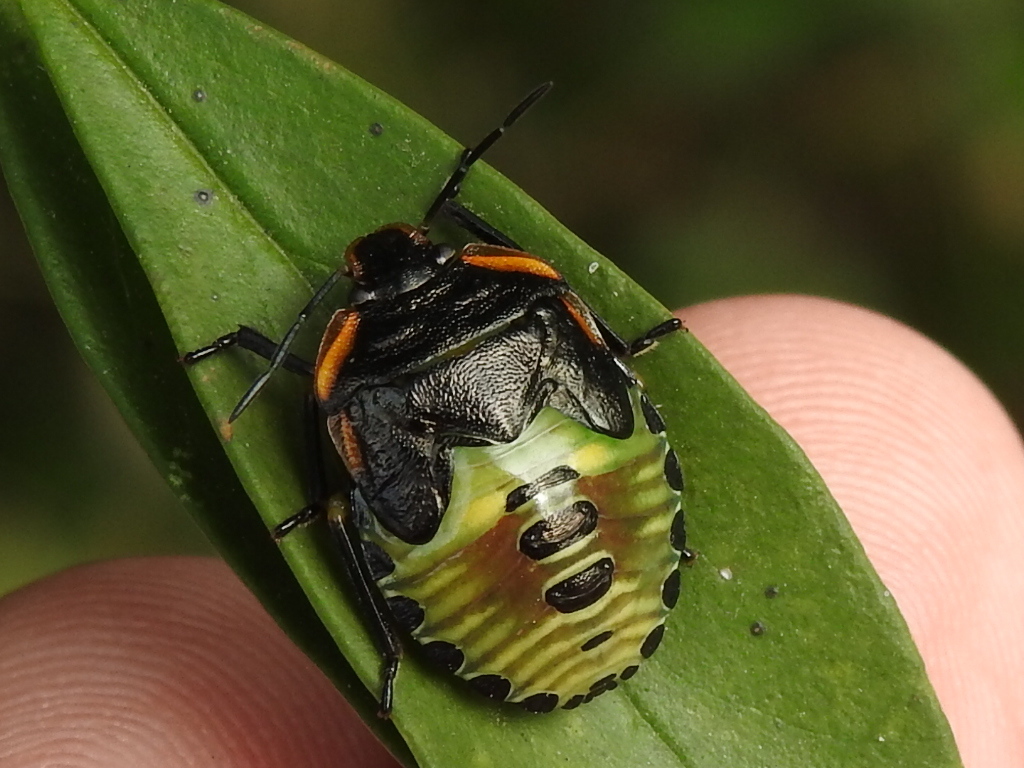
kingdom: Animalia
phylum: Arthropoda
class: Insecta
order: Hemiptera
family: Pentatomidae
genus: Chinavia
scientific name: Chinavia hilaris
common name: Green stink bug
